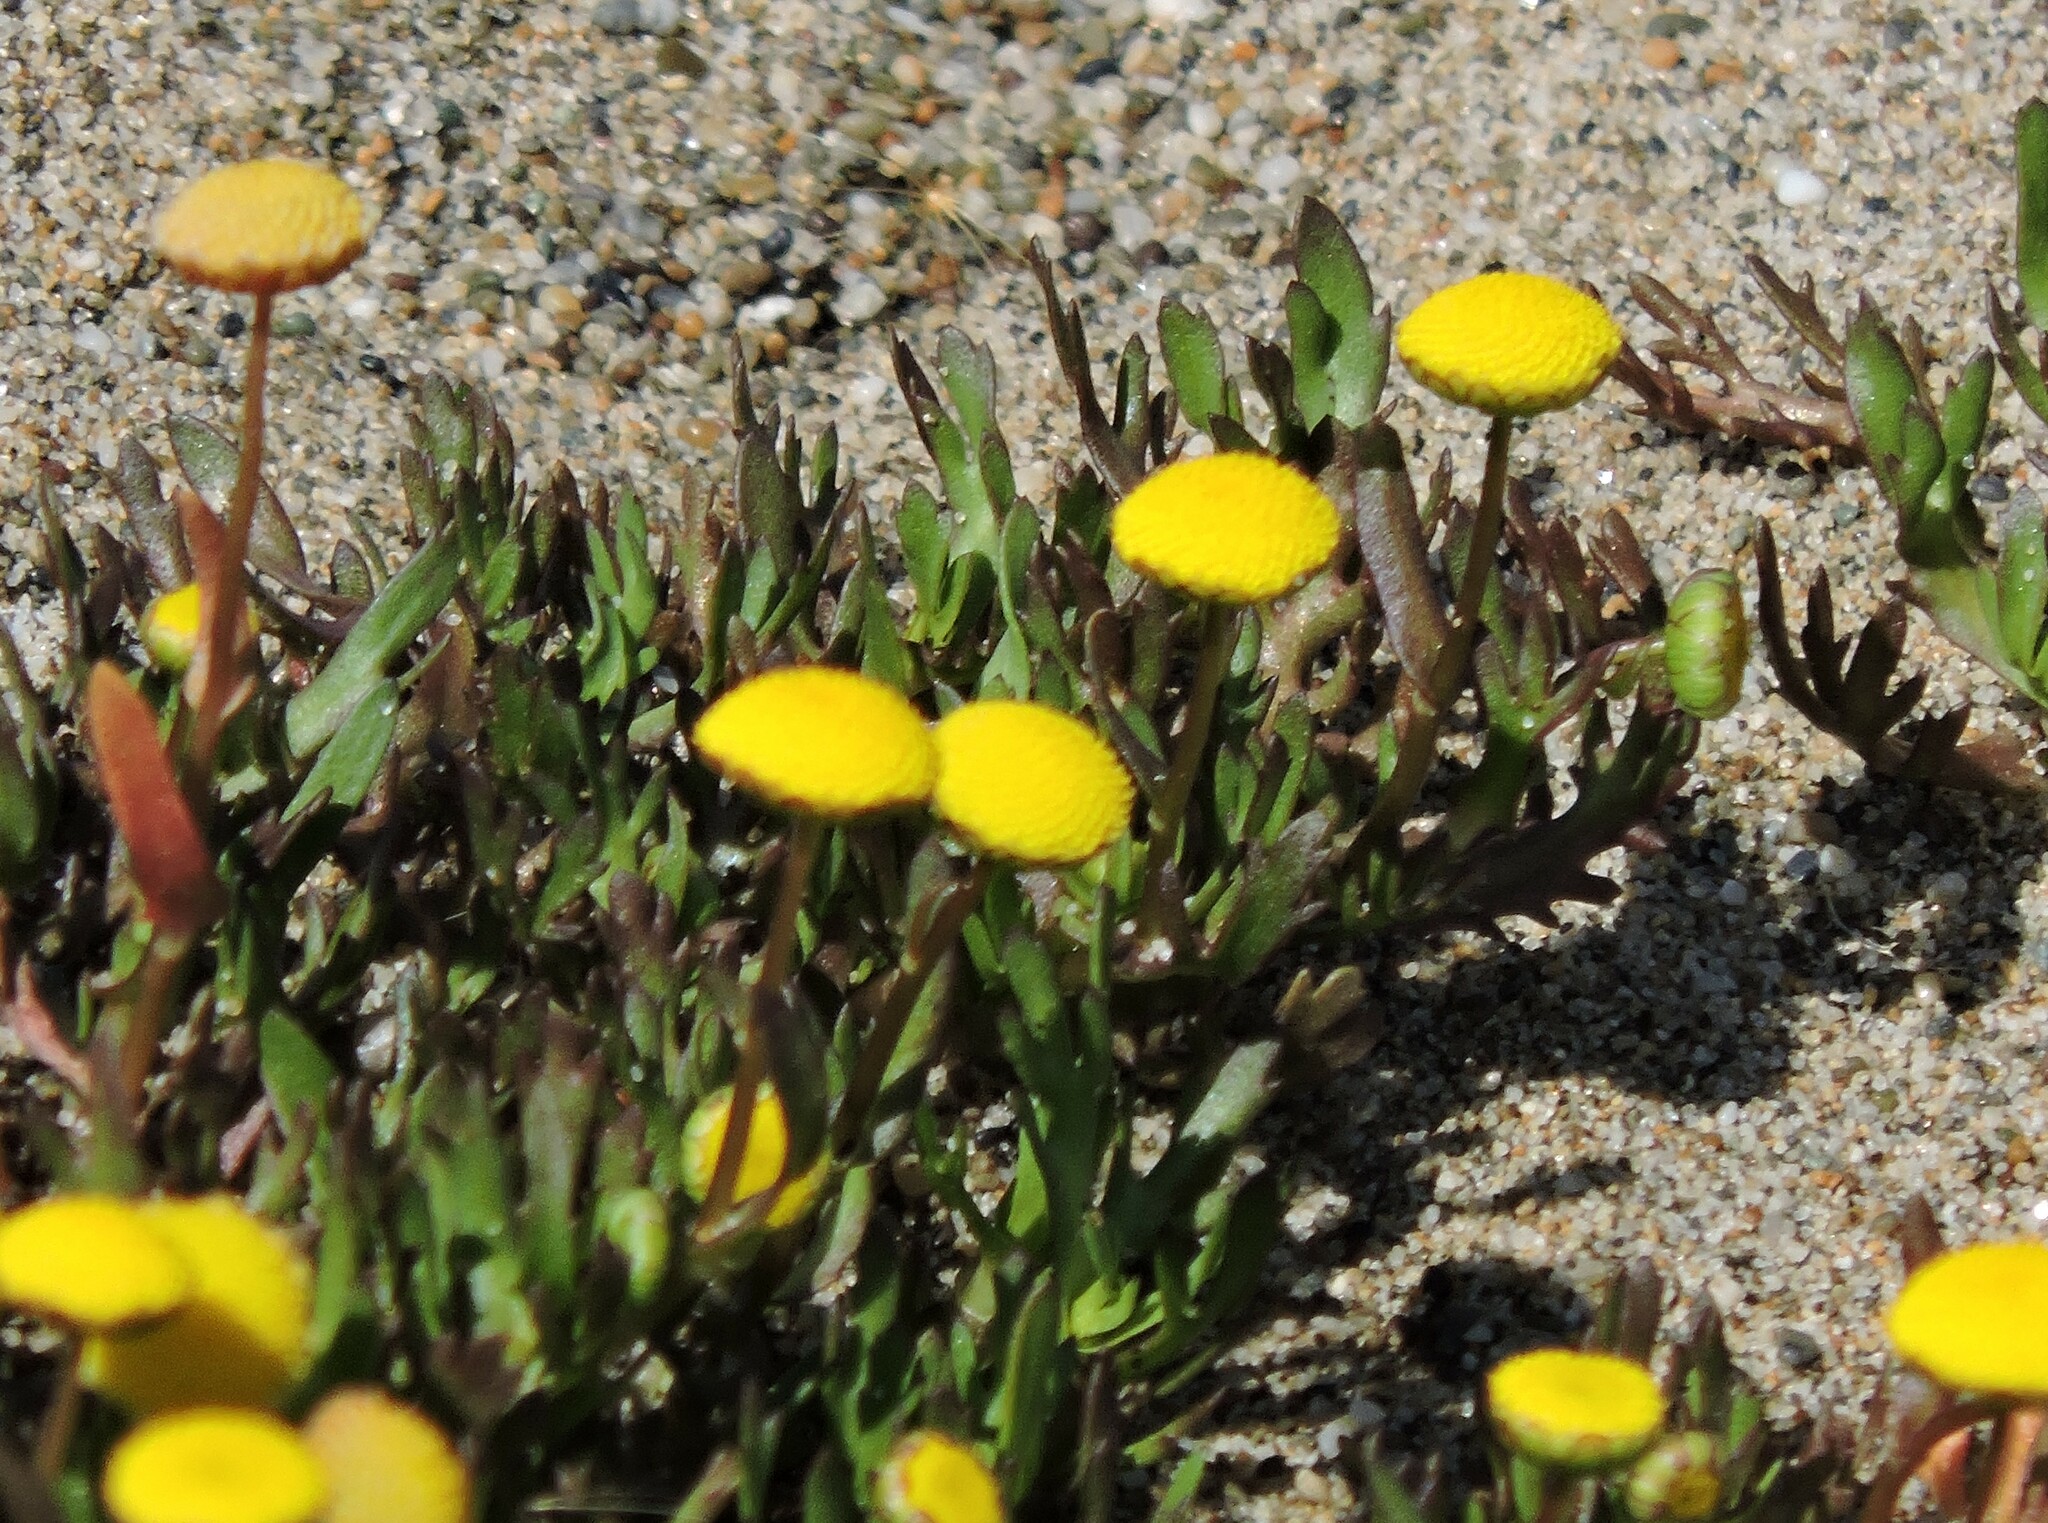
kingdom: Plantae
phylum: Tracheophyta
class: Magnoliopsida
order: Asterales
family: Asteraceae
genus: Cotula
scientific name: Cotula coronopifolia
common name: Buttonweed
